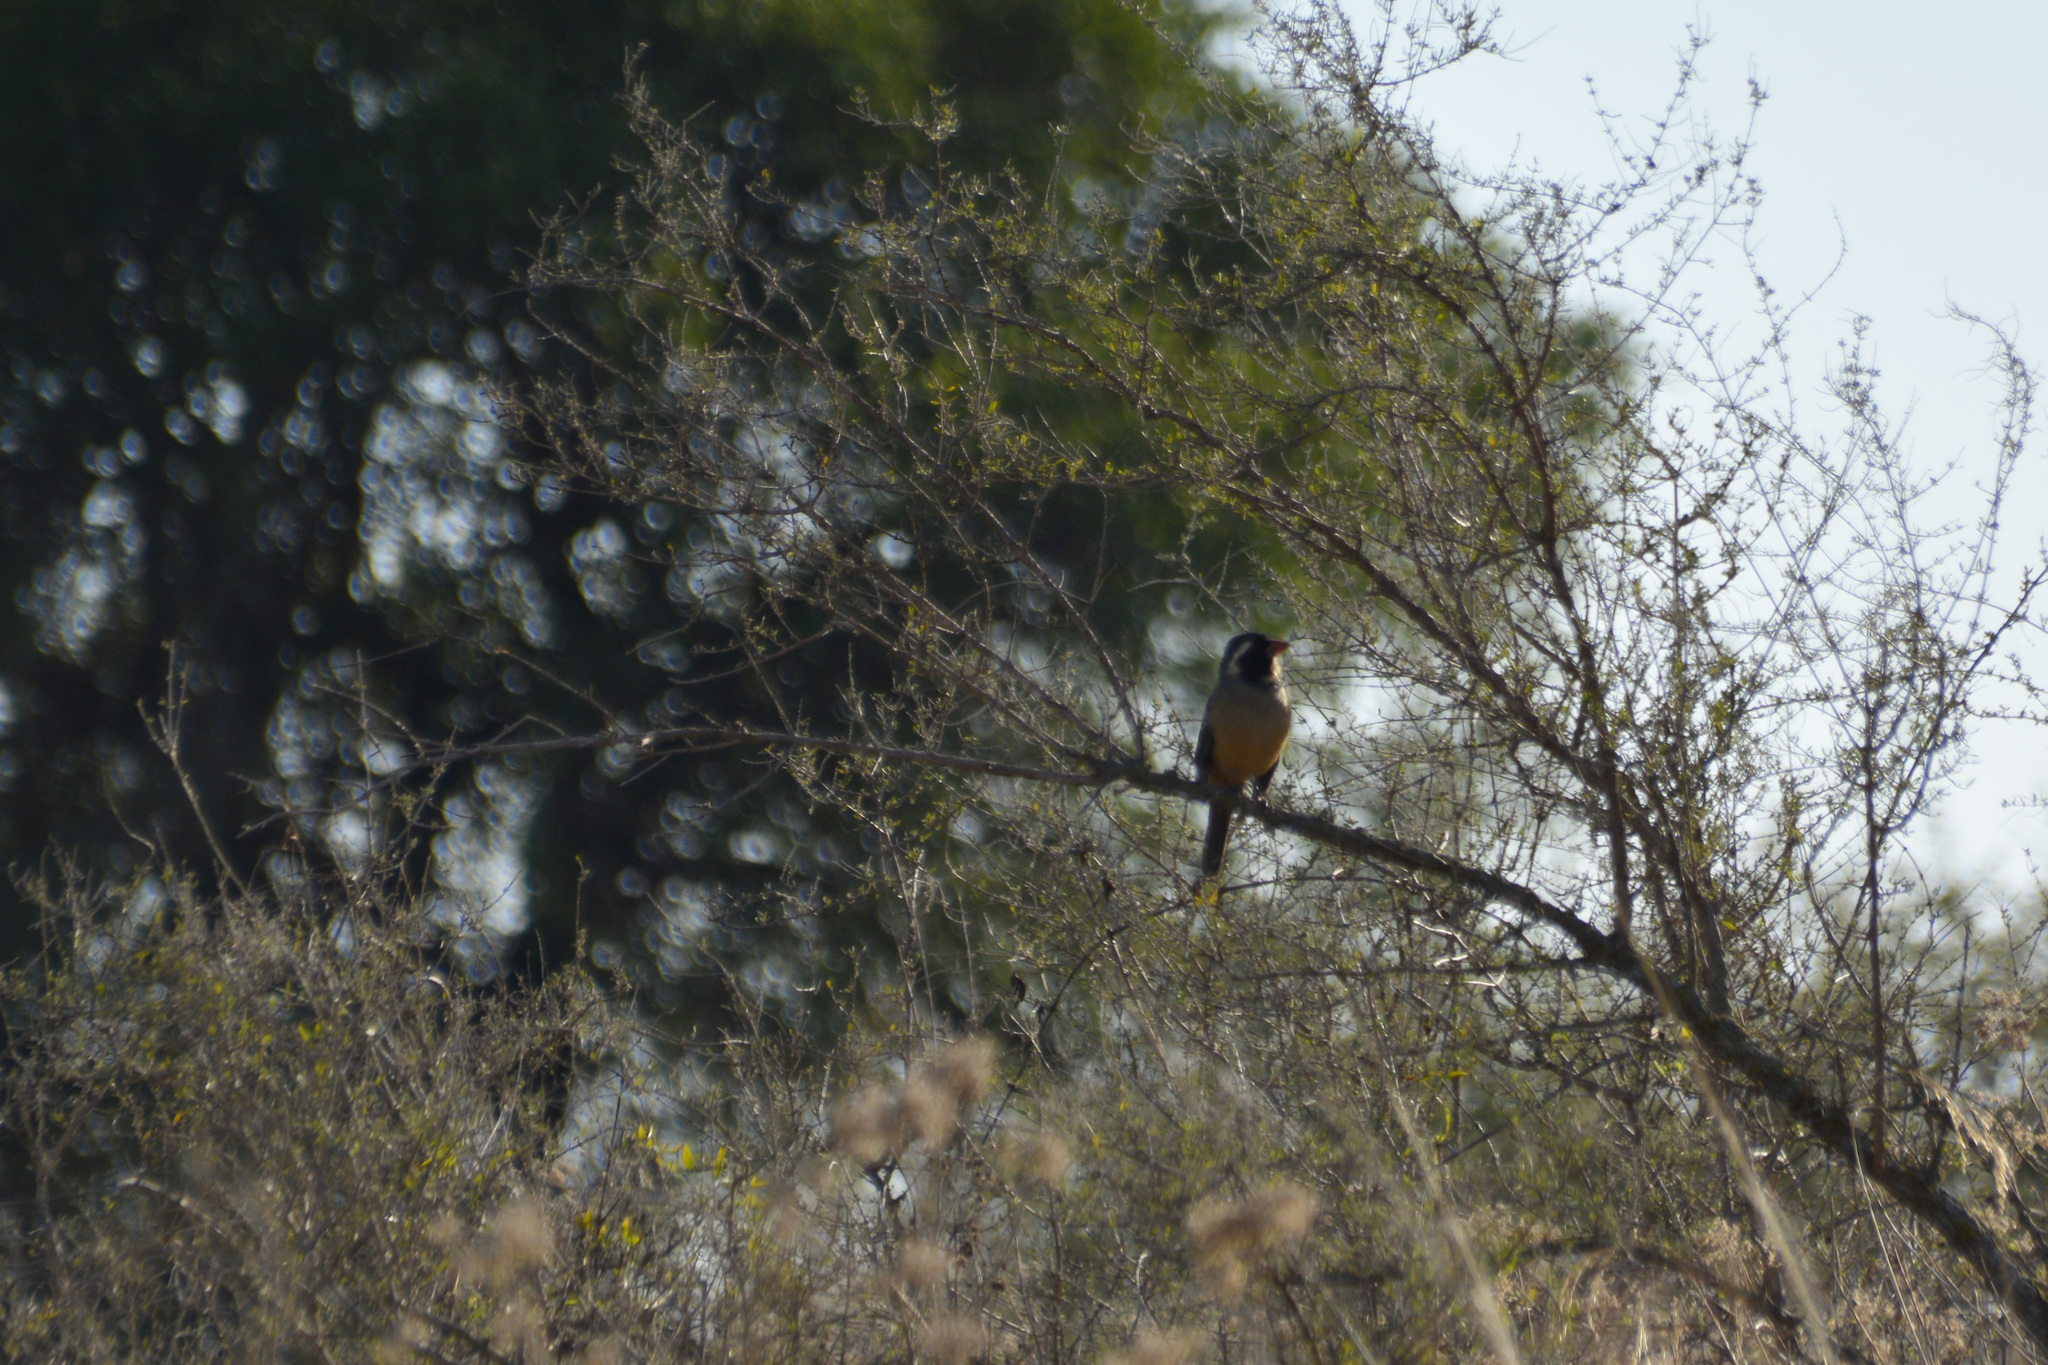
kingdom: Animalia
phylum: Chordata
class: Aves
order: Passeriformes
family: Thraupidae
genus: Saltator
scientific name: Saltator aurantiirostris
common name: Golden-billed saltator
